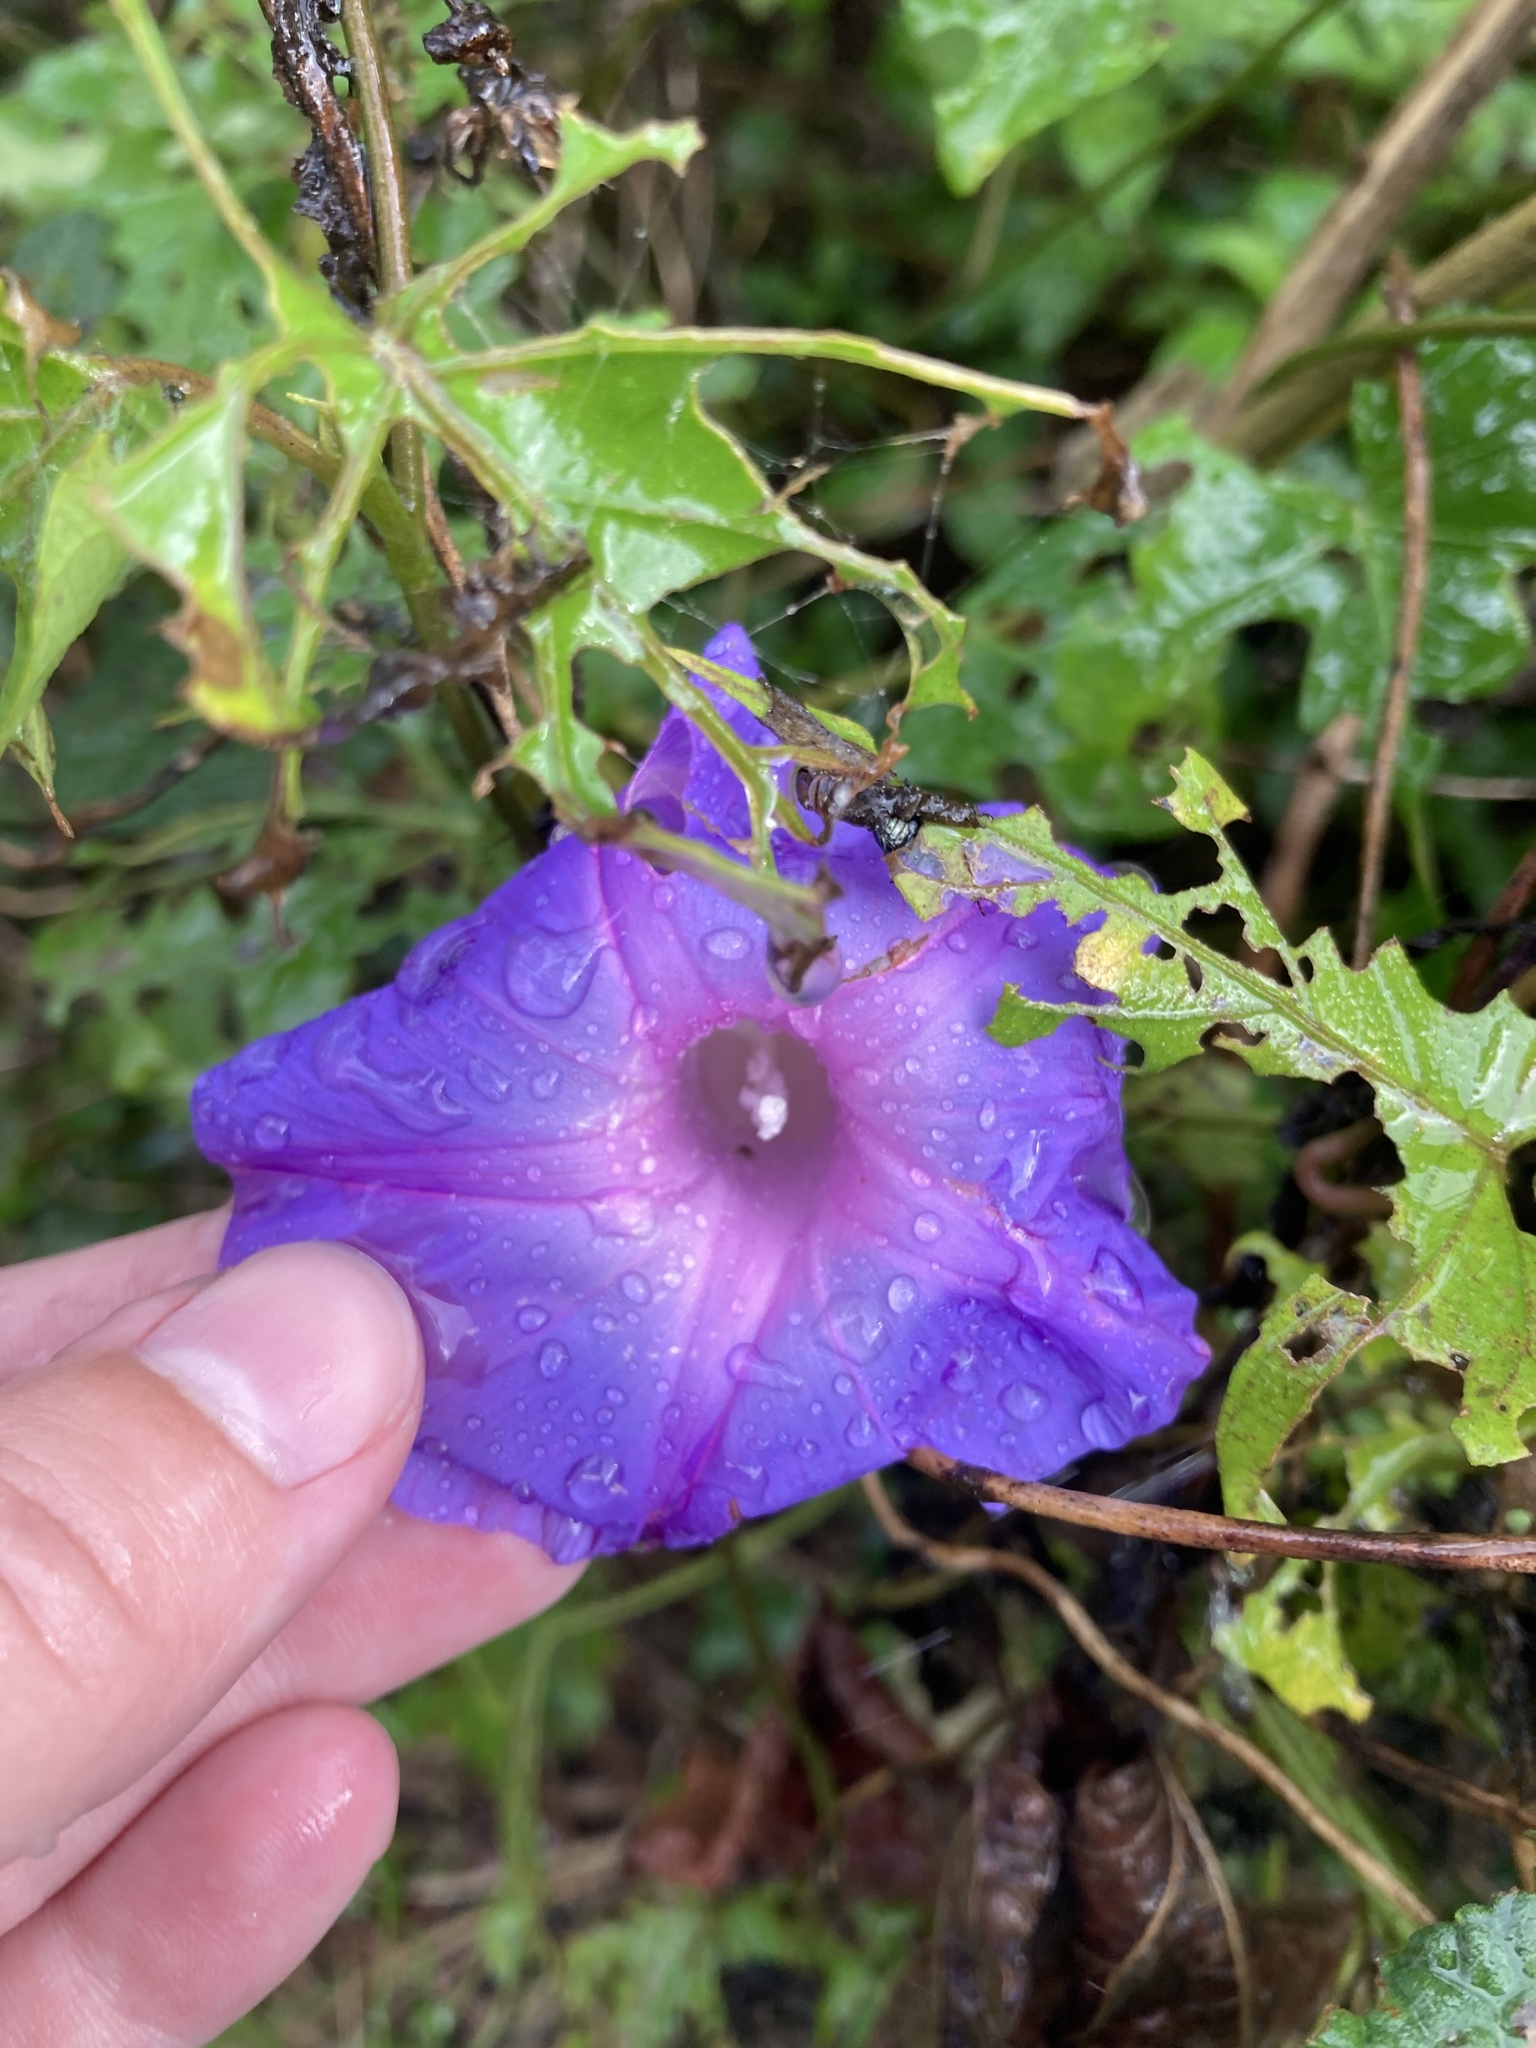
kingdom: Plantae
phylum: Tracheophyta
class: Magnoliopsida
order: Solanales
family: Convolvulaceae
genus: Ipomoea
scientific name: Ipomoea indica
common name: Blue dawnflower
